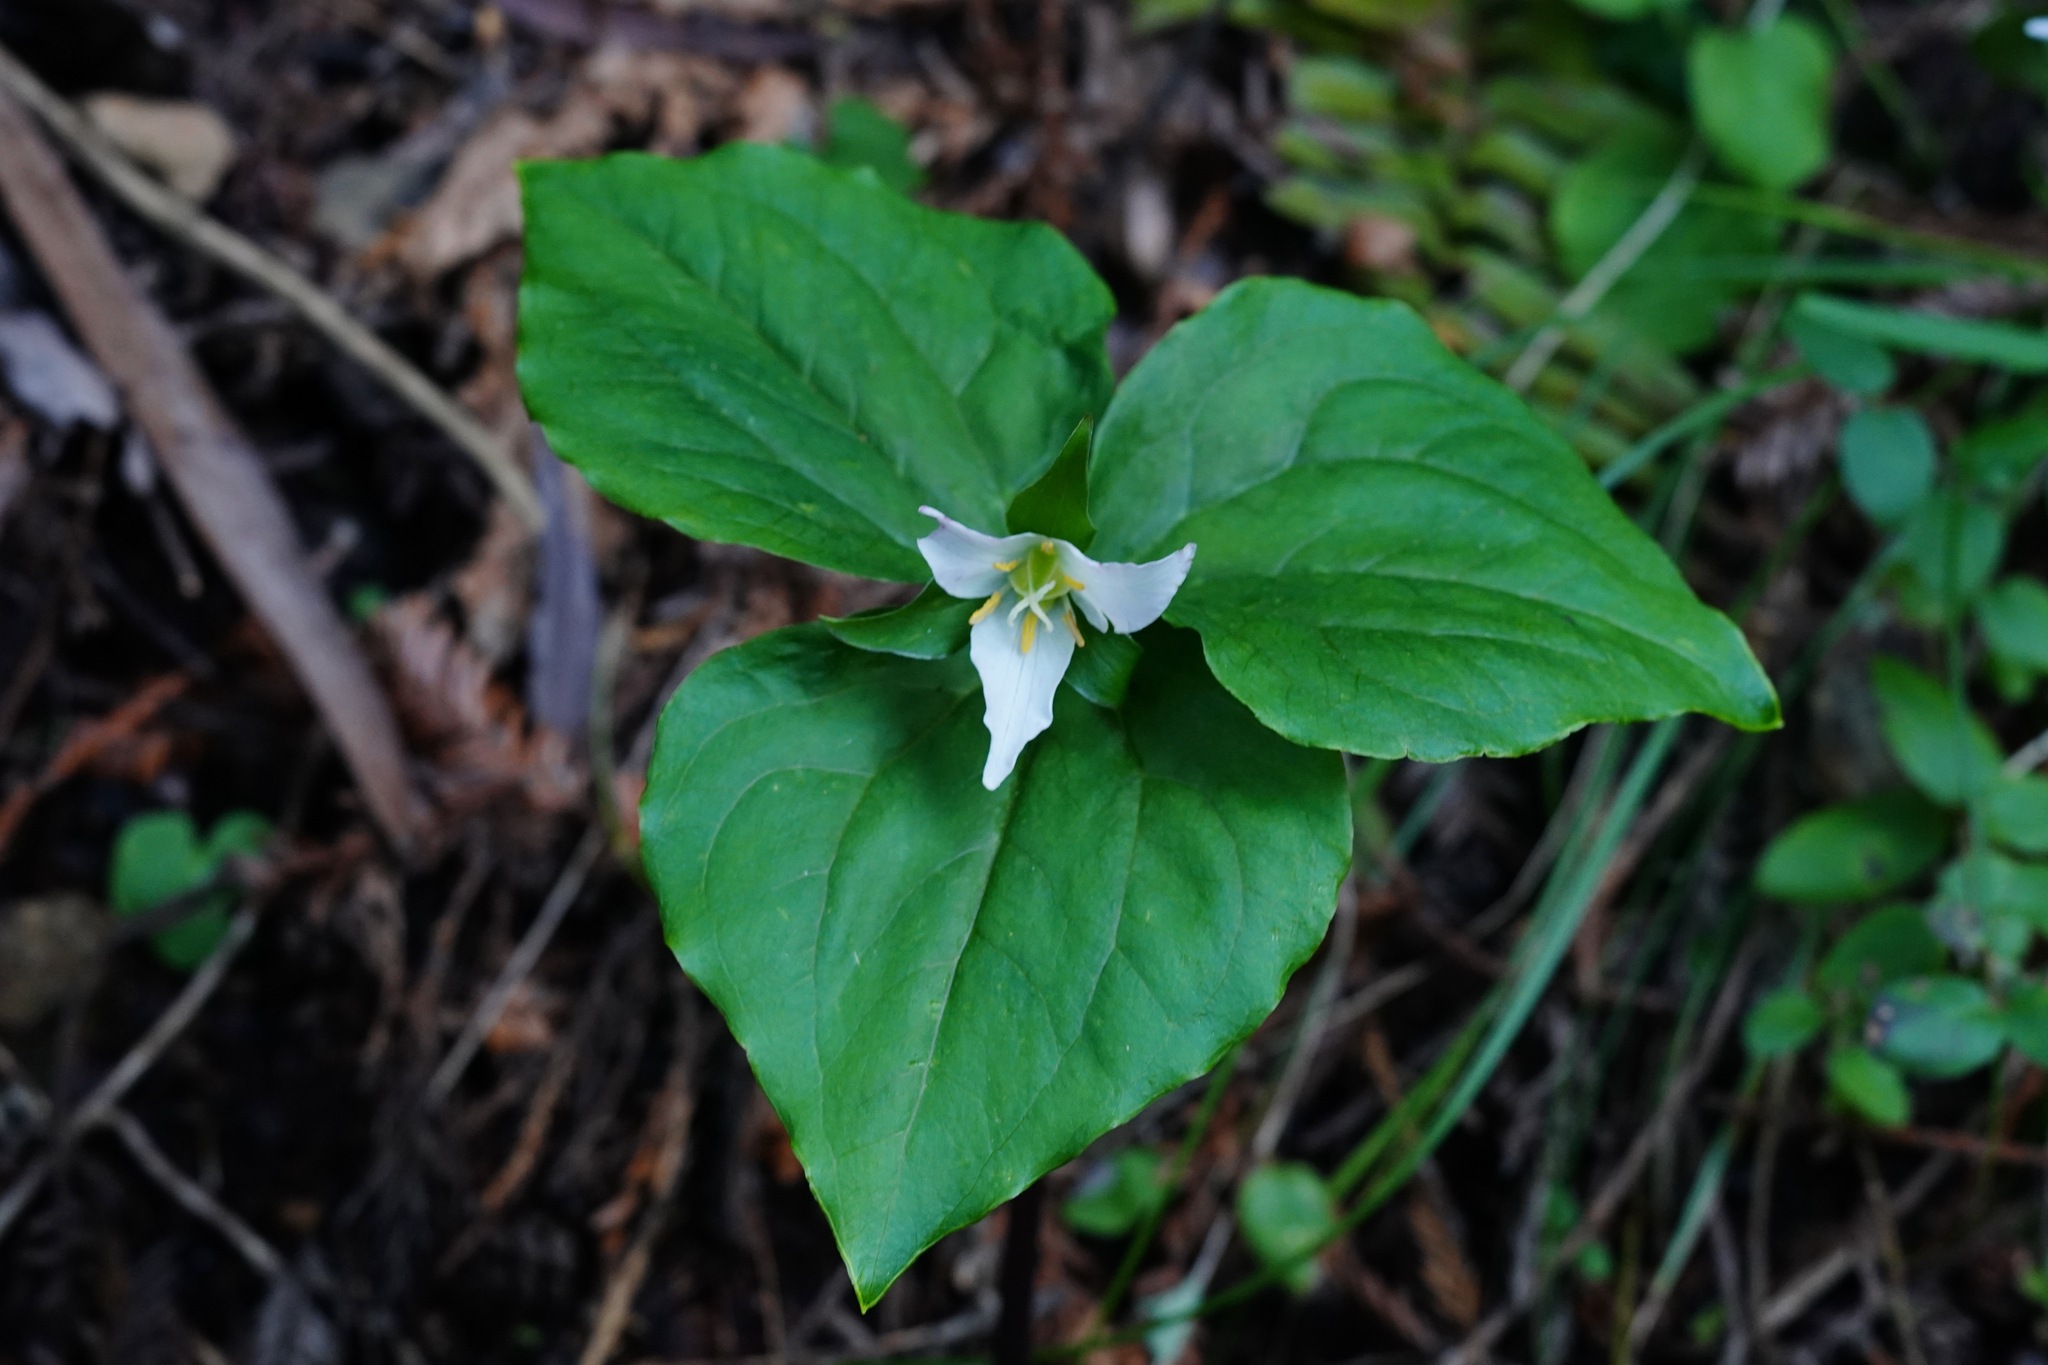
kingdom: Plantae
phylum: Tracheophyta
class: Liliopsida
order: Liliales
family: Melanthiaceae
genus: Trillium
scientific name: Trillium ovatum
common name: Pacific trillium
